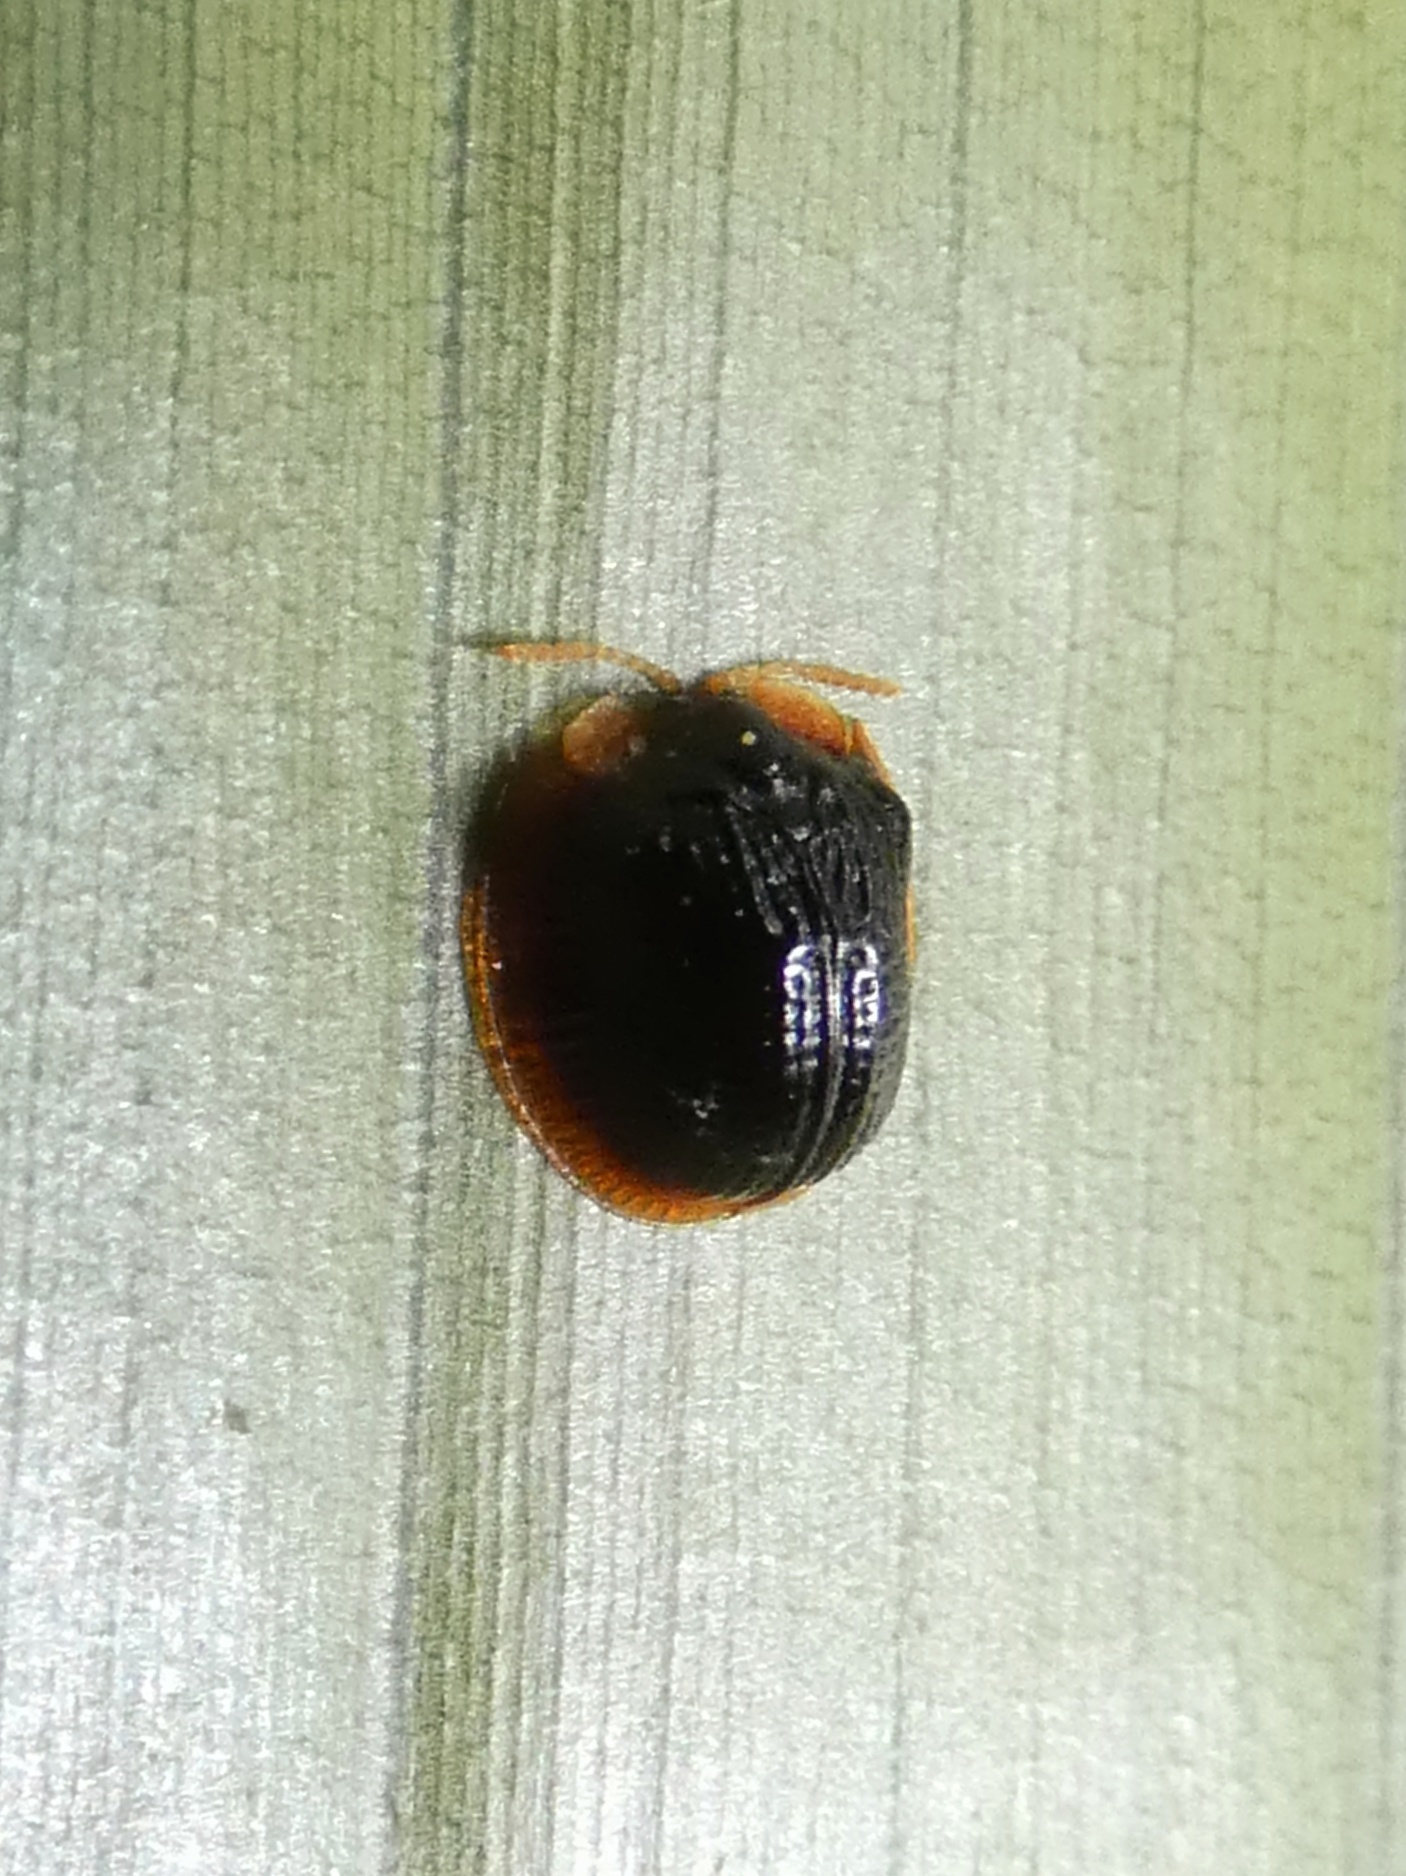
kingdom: Animalia
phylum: Arthropoda
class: Insecta
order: Coleoptera
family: Chrysomelidae
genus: Spaethiella
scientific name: Spaethiella circumdata
